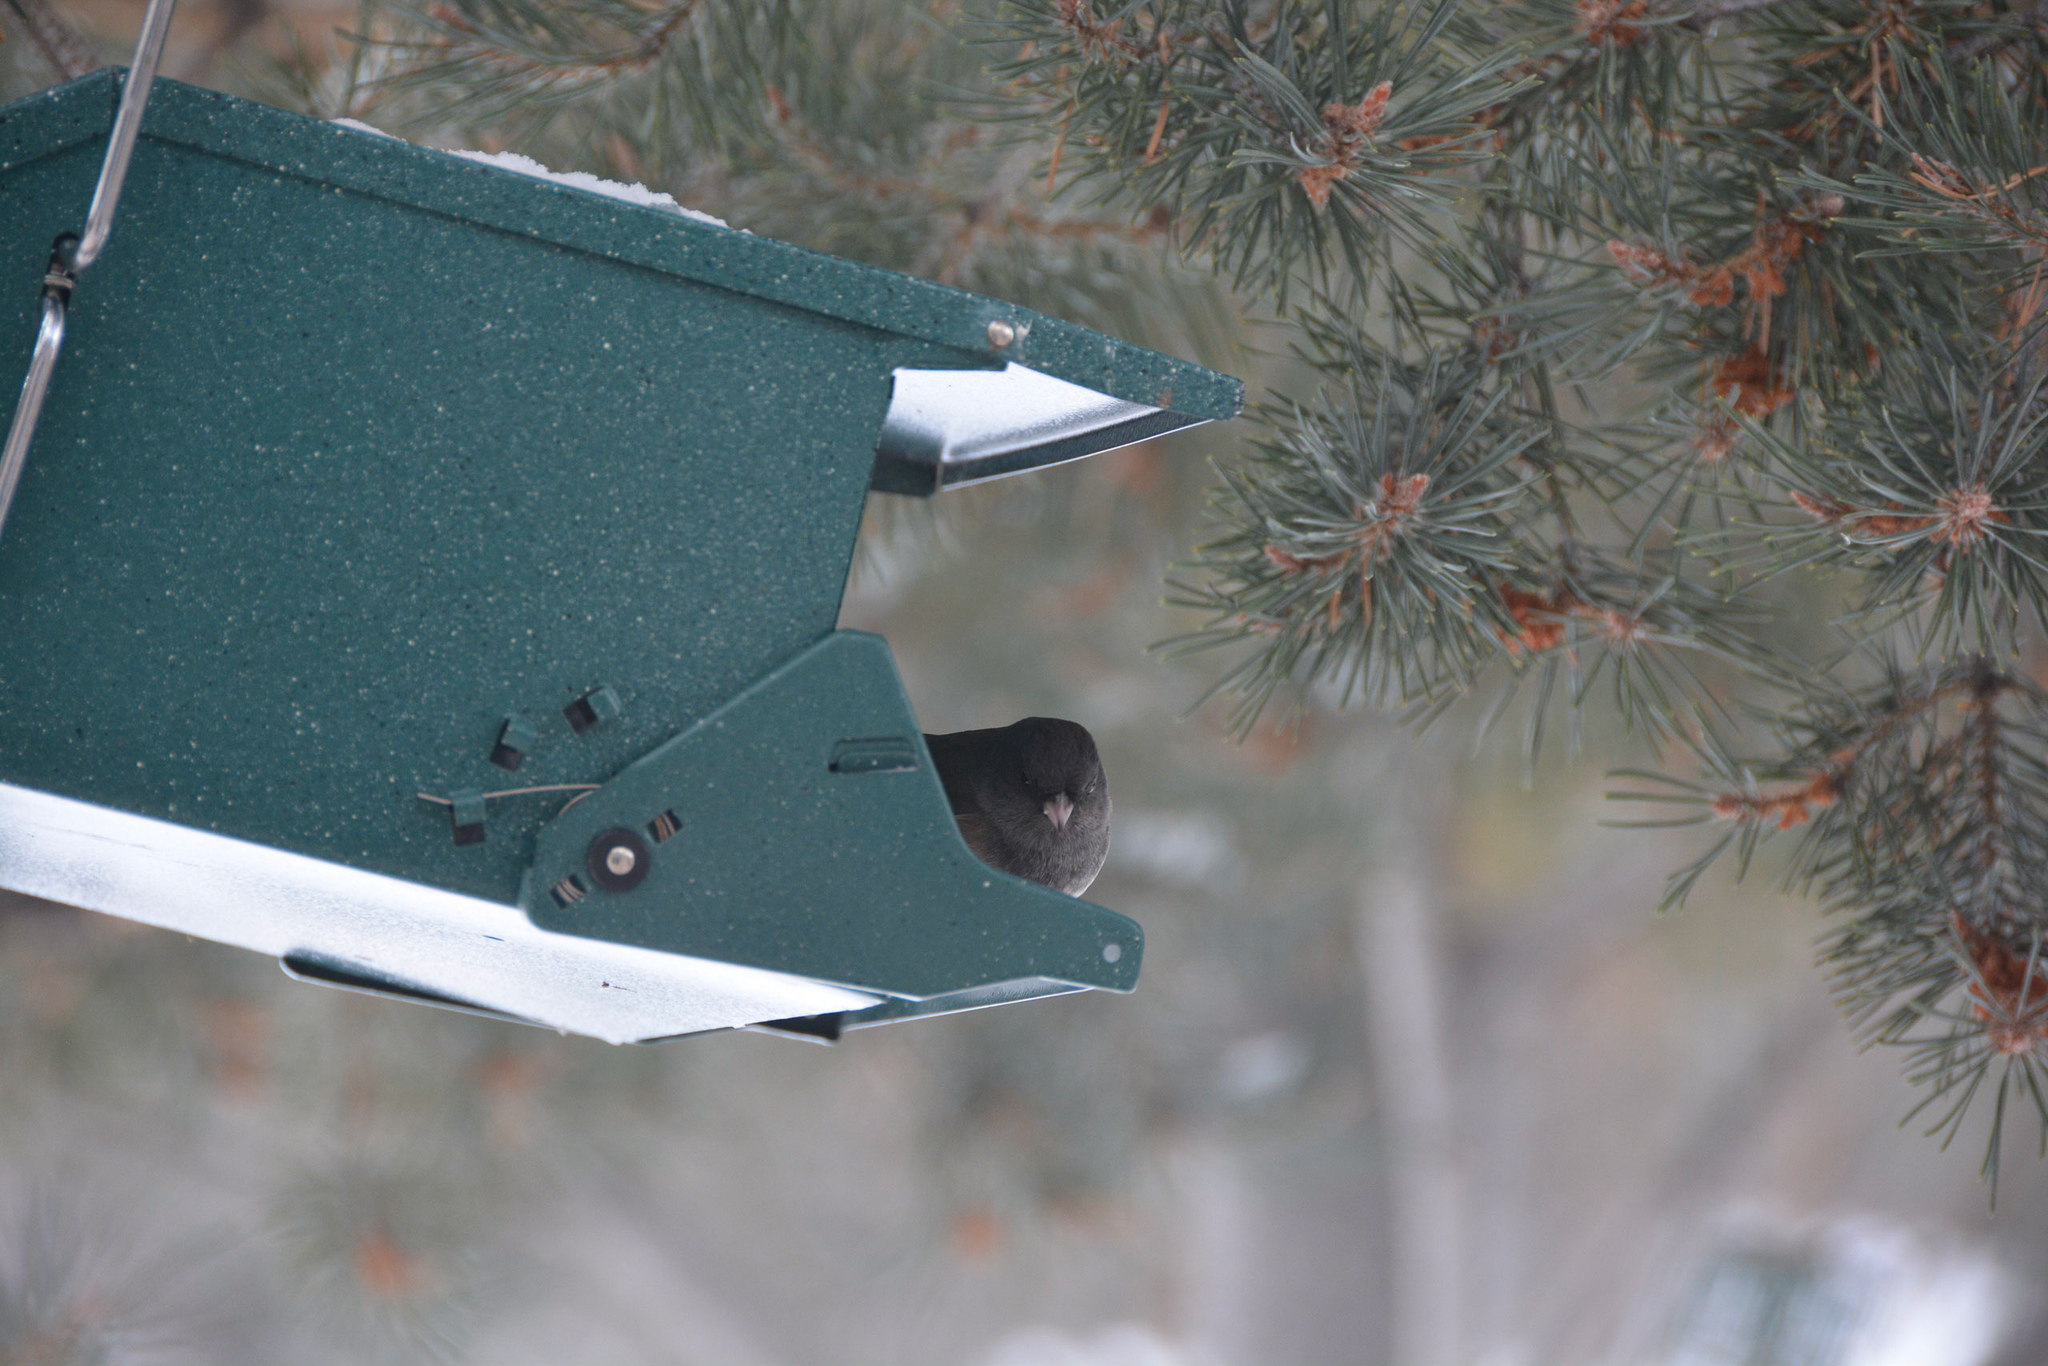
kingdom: Animalia
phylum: Chordata
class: Aves
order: Passeriformes
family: Passerellidae
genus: Junco
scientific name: Junco hyemalis
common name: Dark-eyed junco
